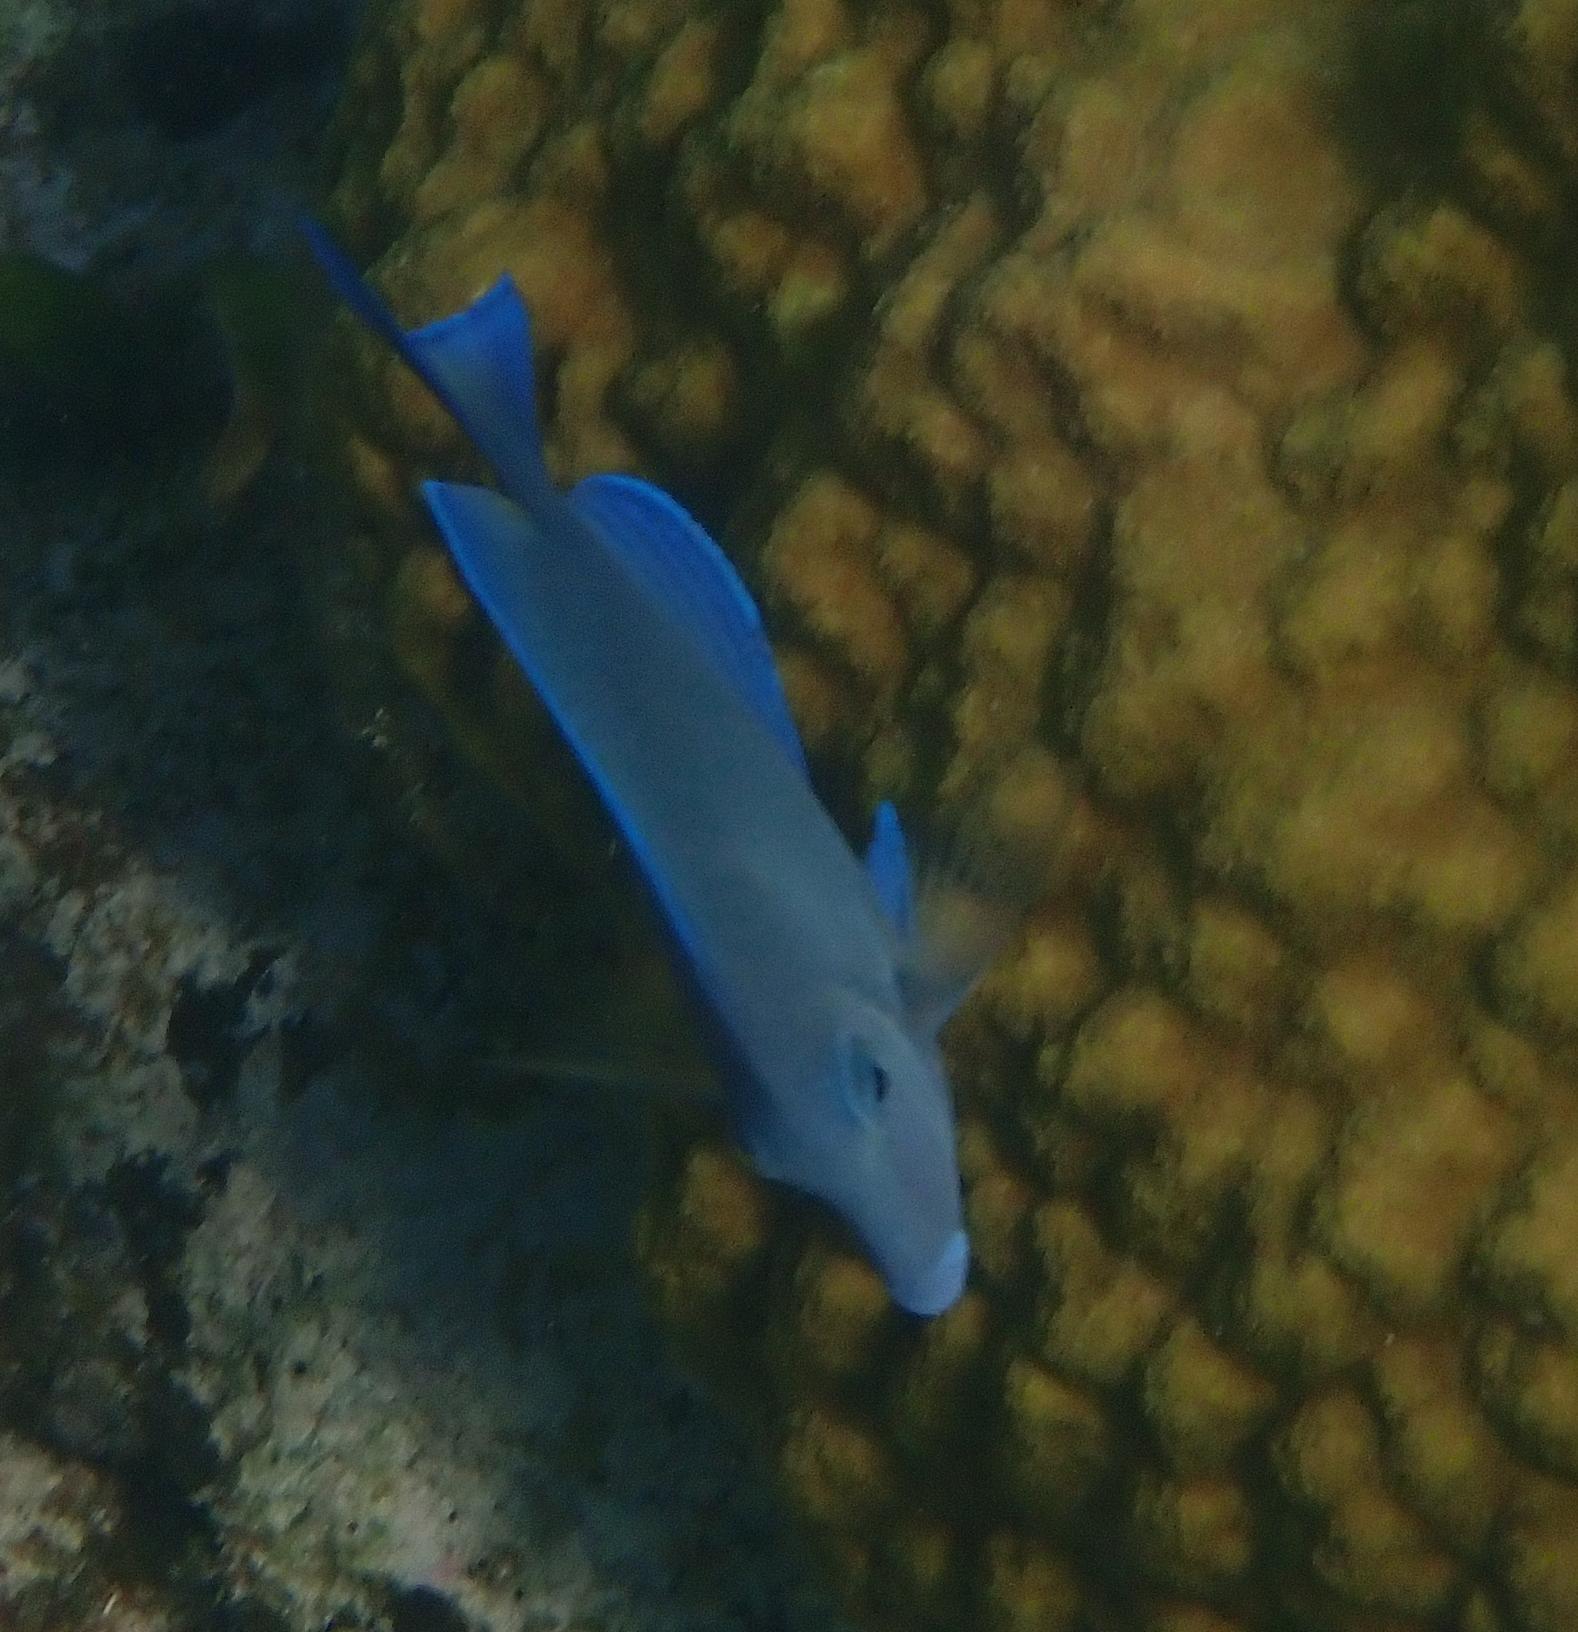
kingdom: Animalia
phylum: Chordata
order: Perciformes
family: Acanthuridae
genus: Acanthurus
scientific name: Acanthurus coeruleus
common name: Blue tang
